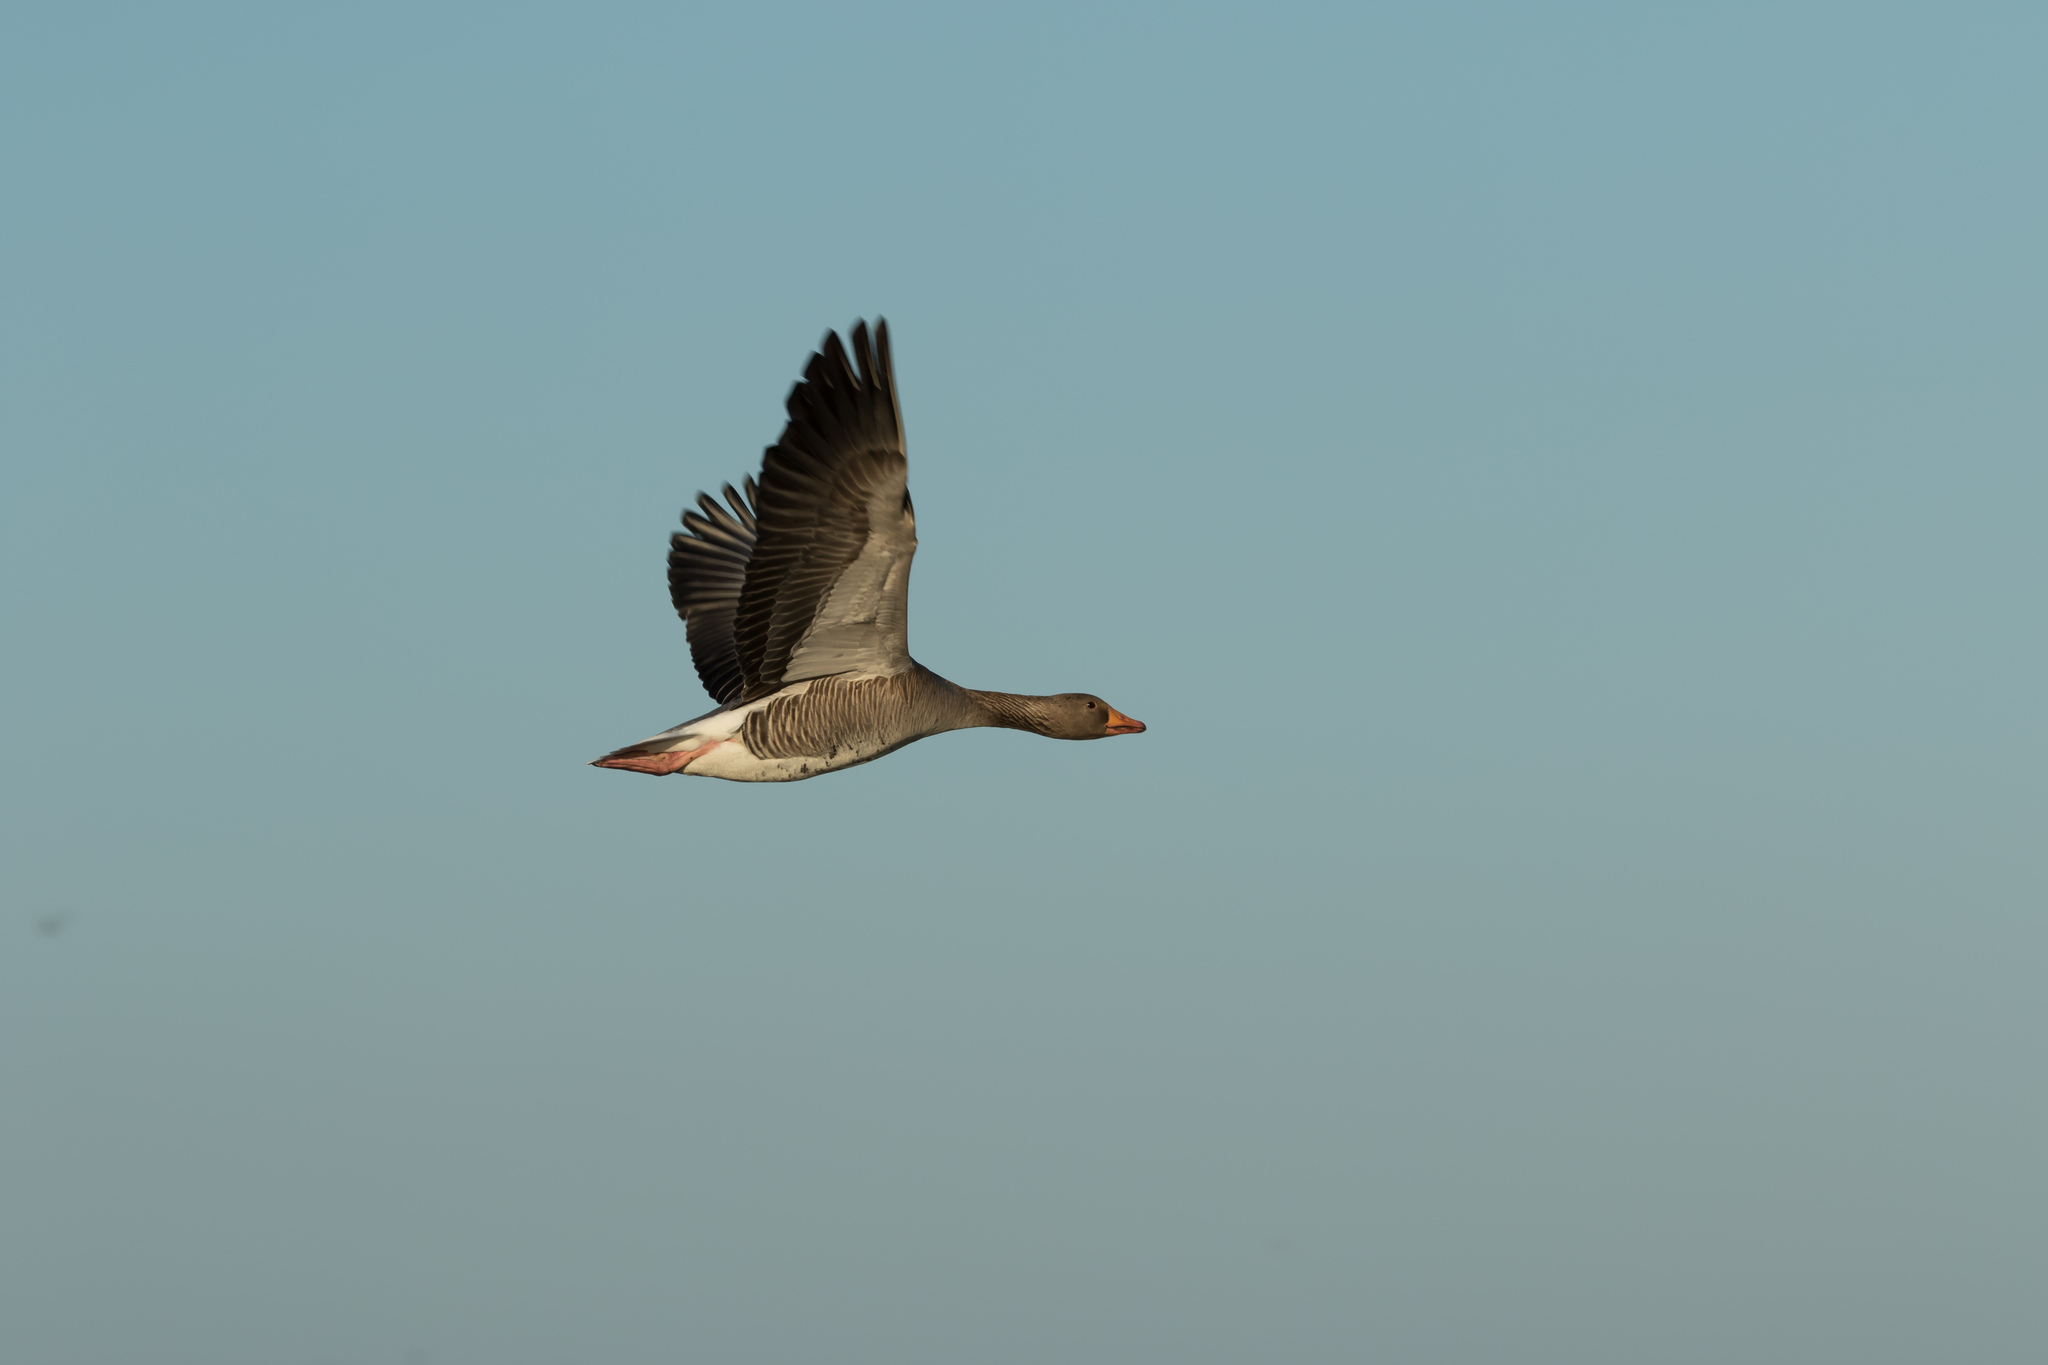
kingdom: Animalia
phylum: Chordata
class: Aves
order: Anseriformes
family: Anatidae
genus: Anser
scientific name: Anser anser
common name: Greylag goose
